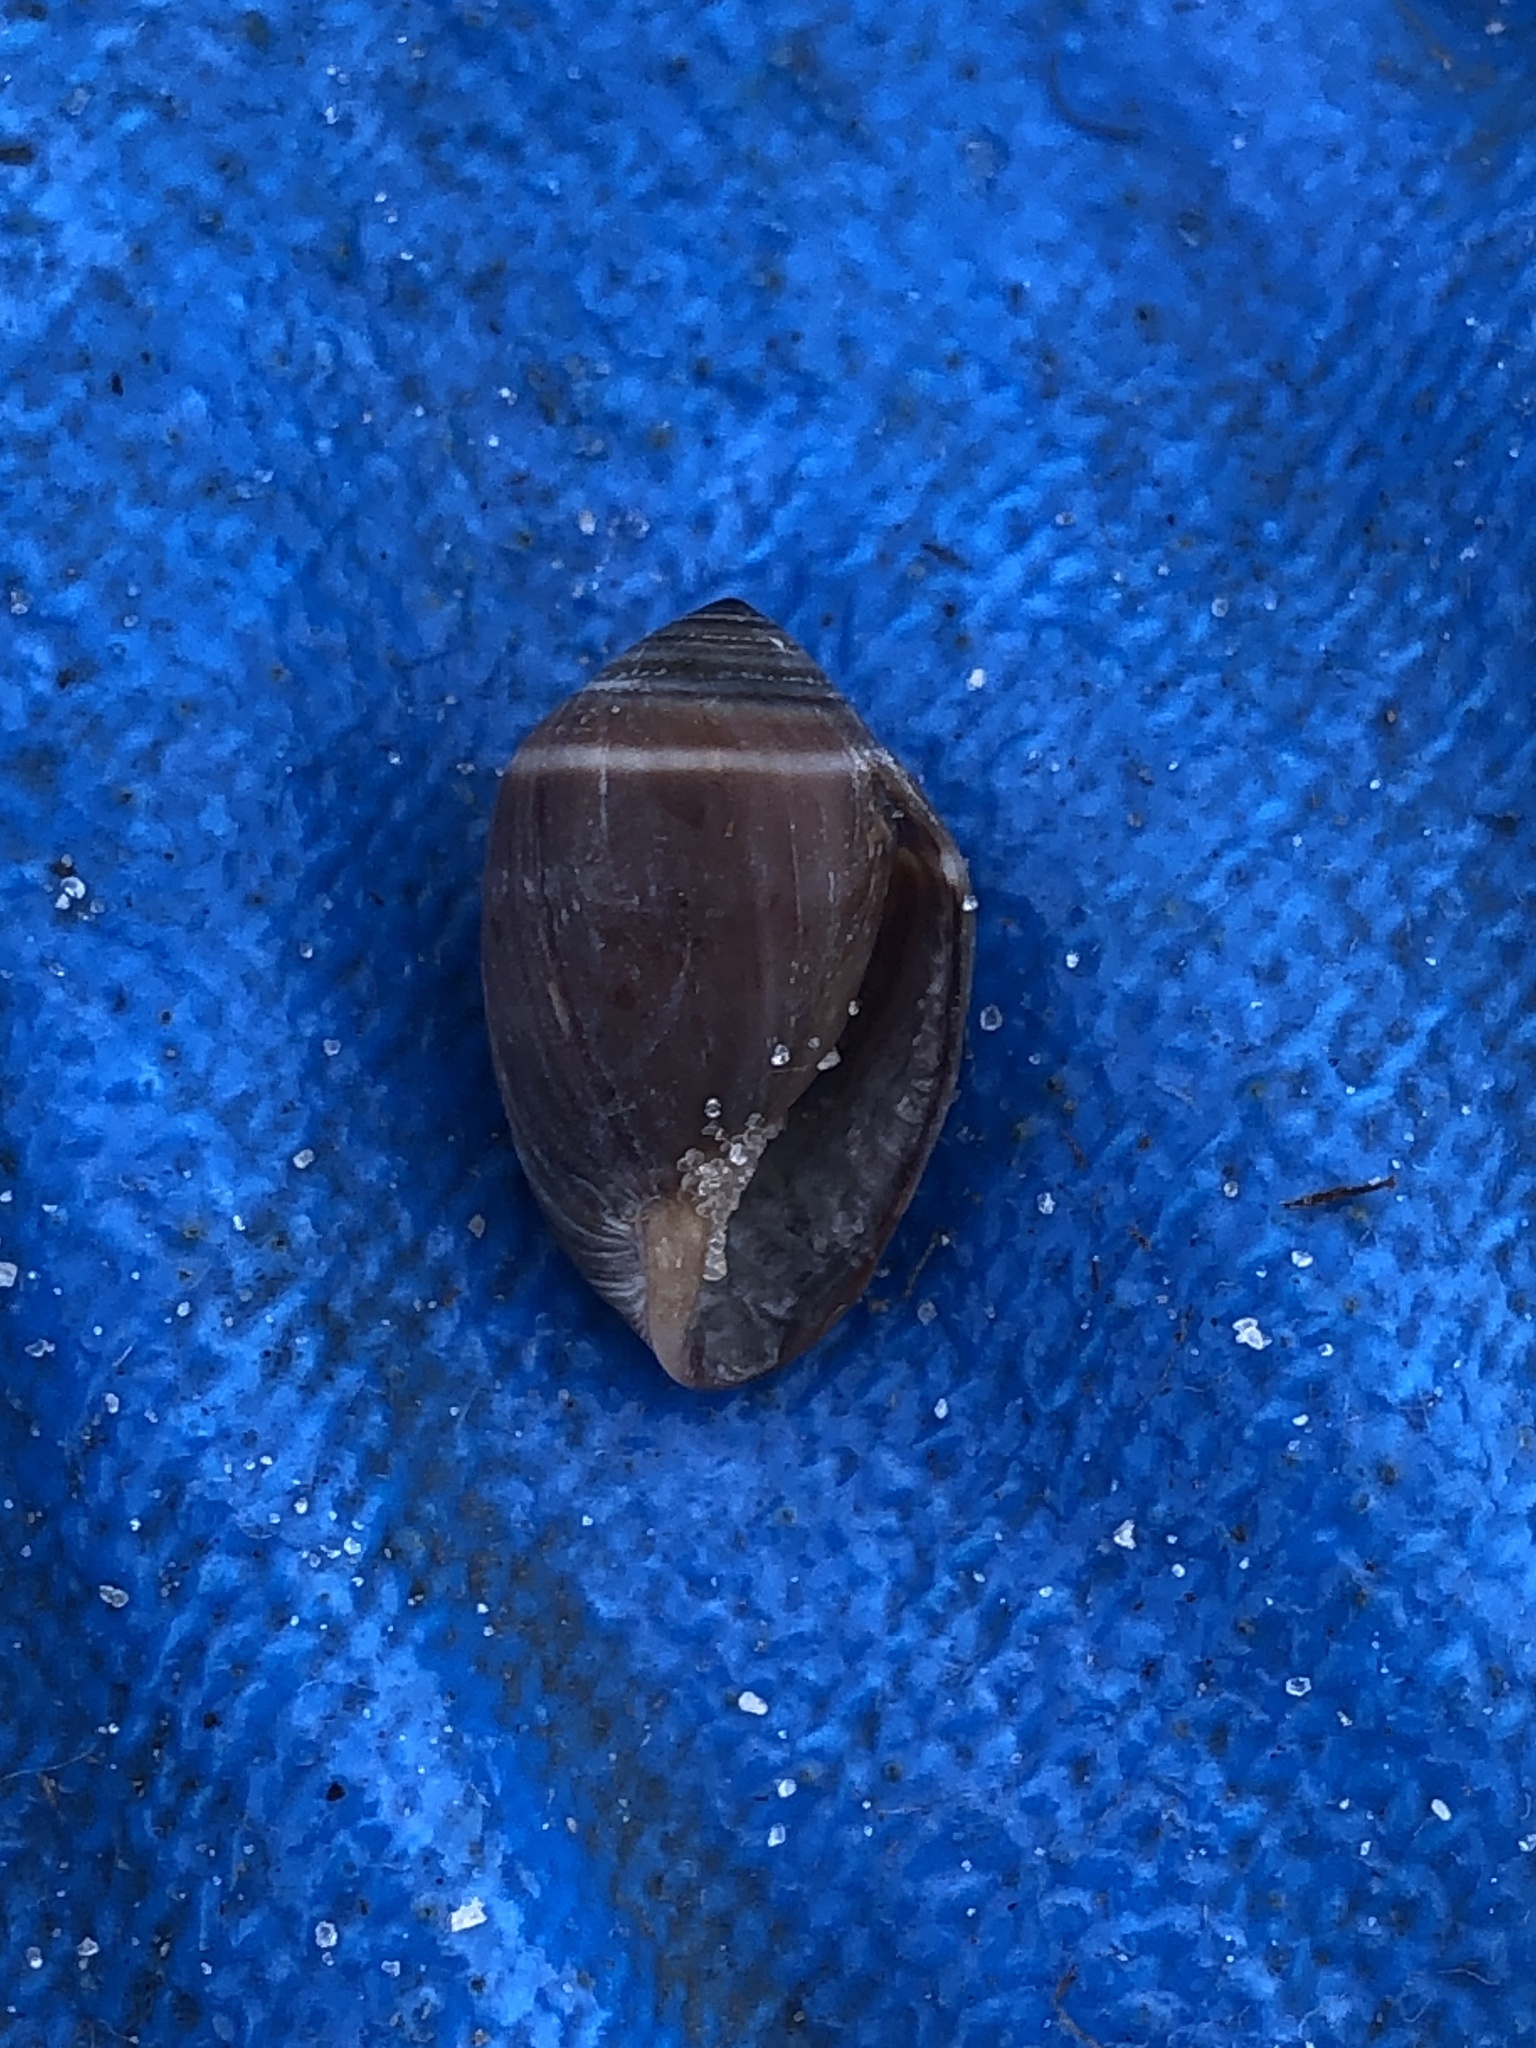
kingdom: Animalia
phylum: Mollusca
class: Gastropoda
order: Ellobiida
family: Ellobiidae
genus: Melampus
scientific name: Melampus coffea
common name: Coffee bean snail
